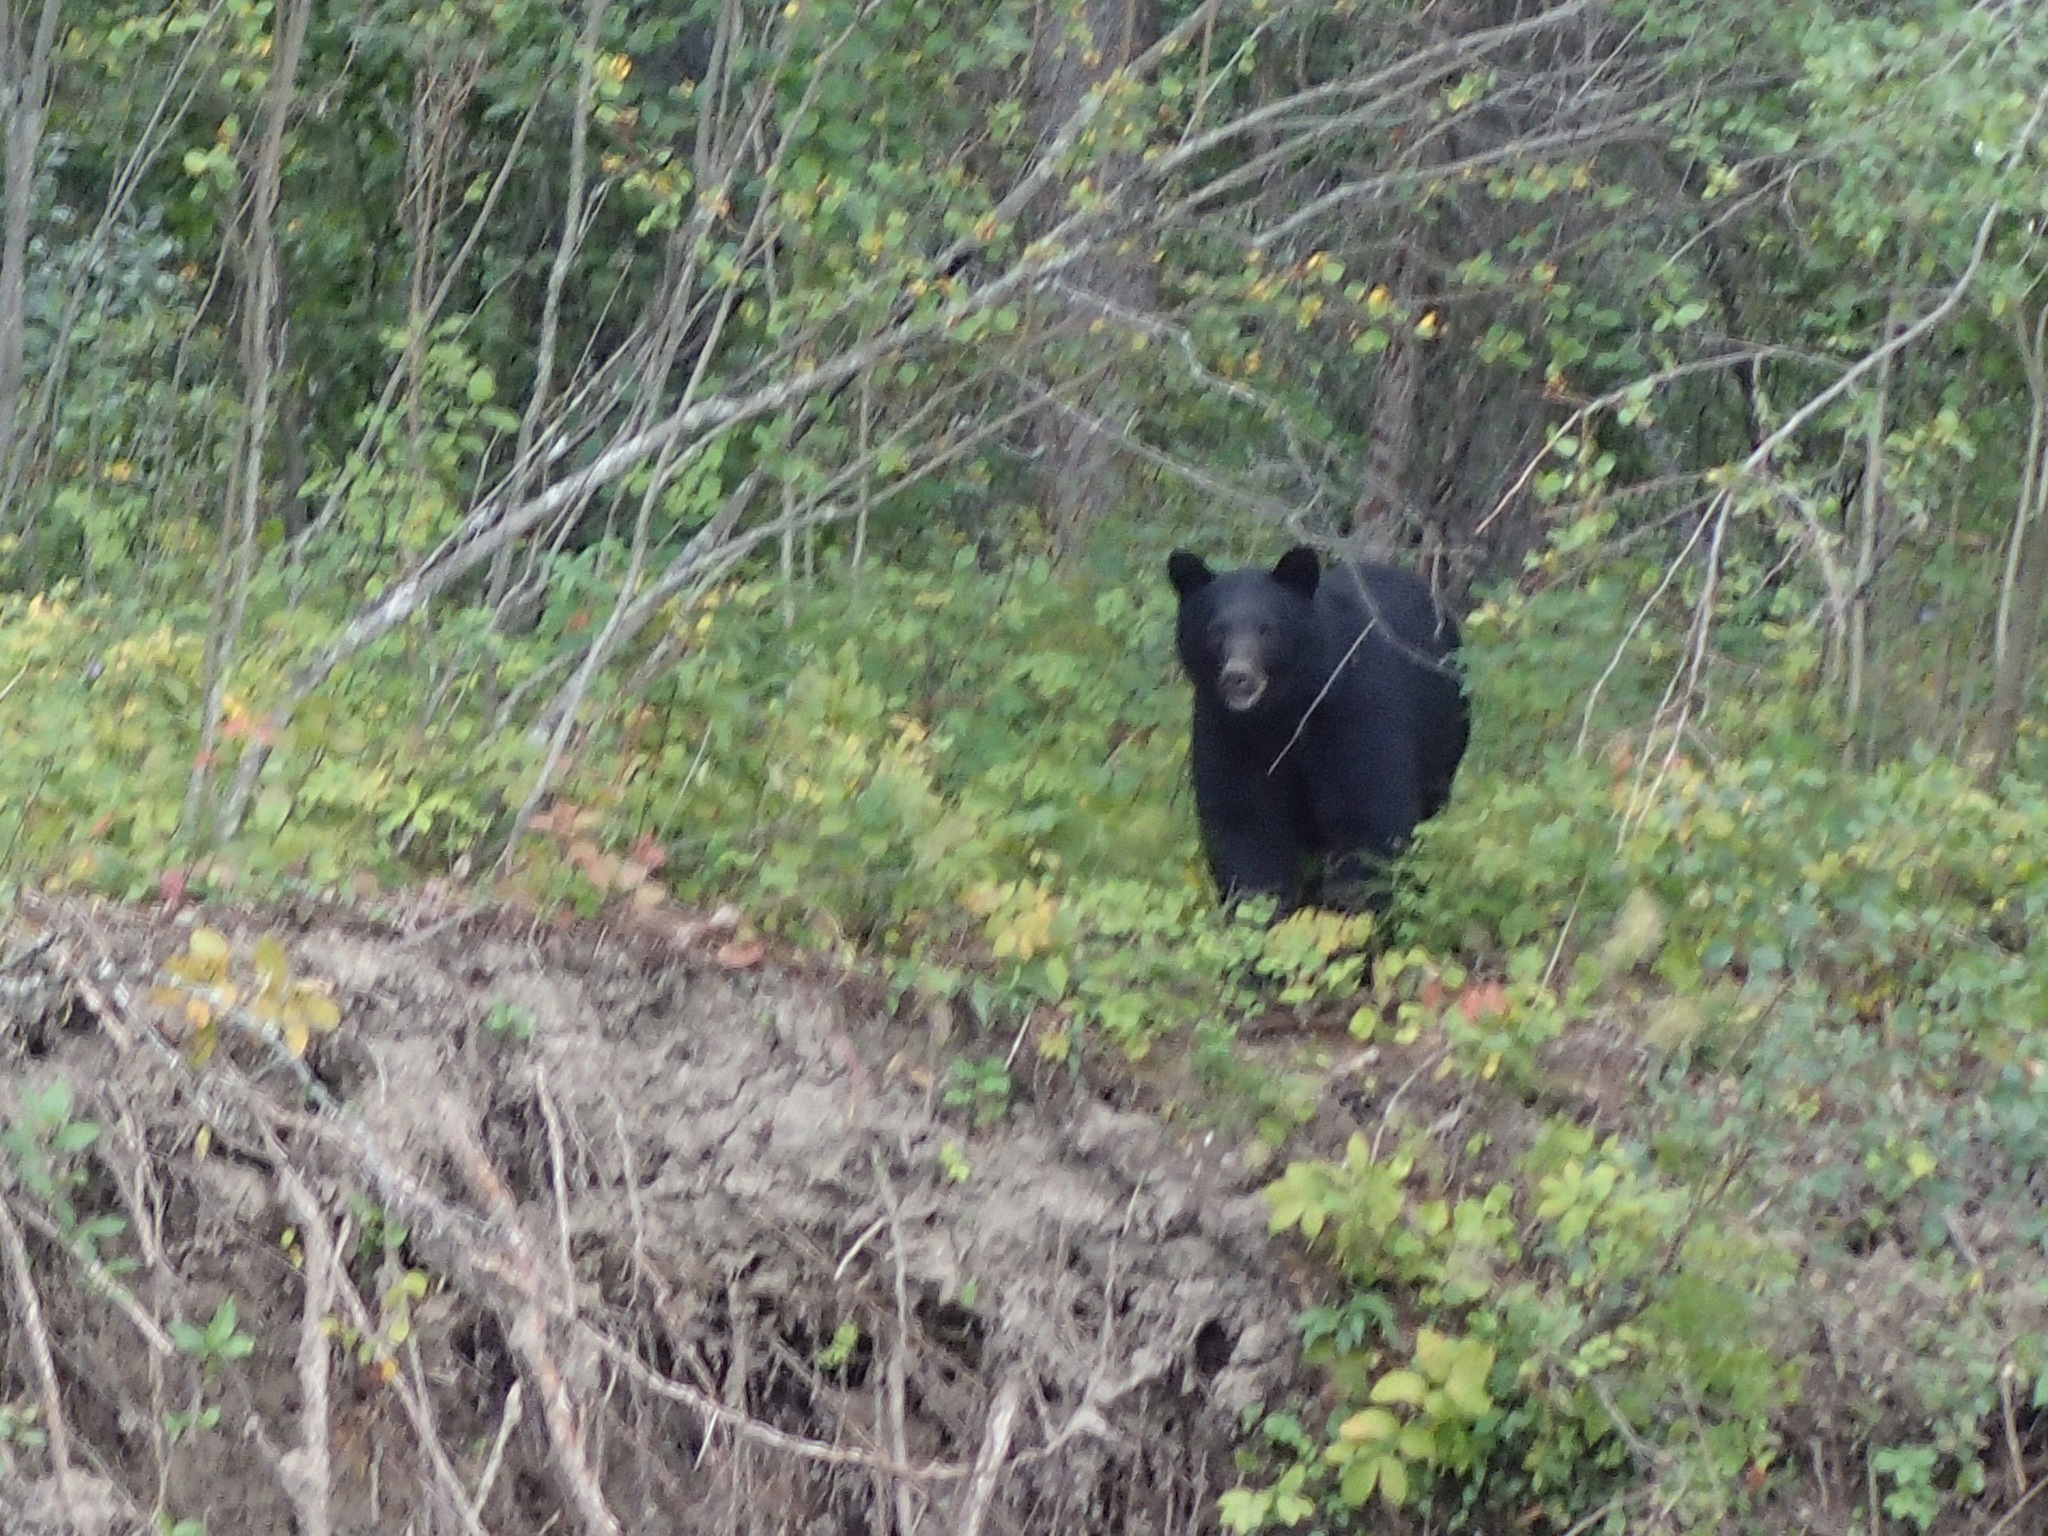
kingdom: Animalia
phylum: Chordata
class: Mammalia
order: Carnivora
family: Ursidae
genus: Ursus
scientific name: Ursus americanus
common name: American black bear
